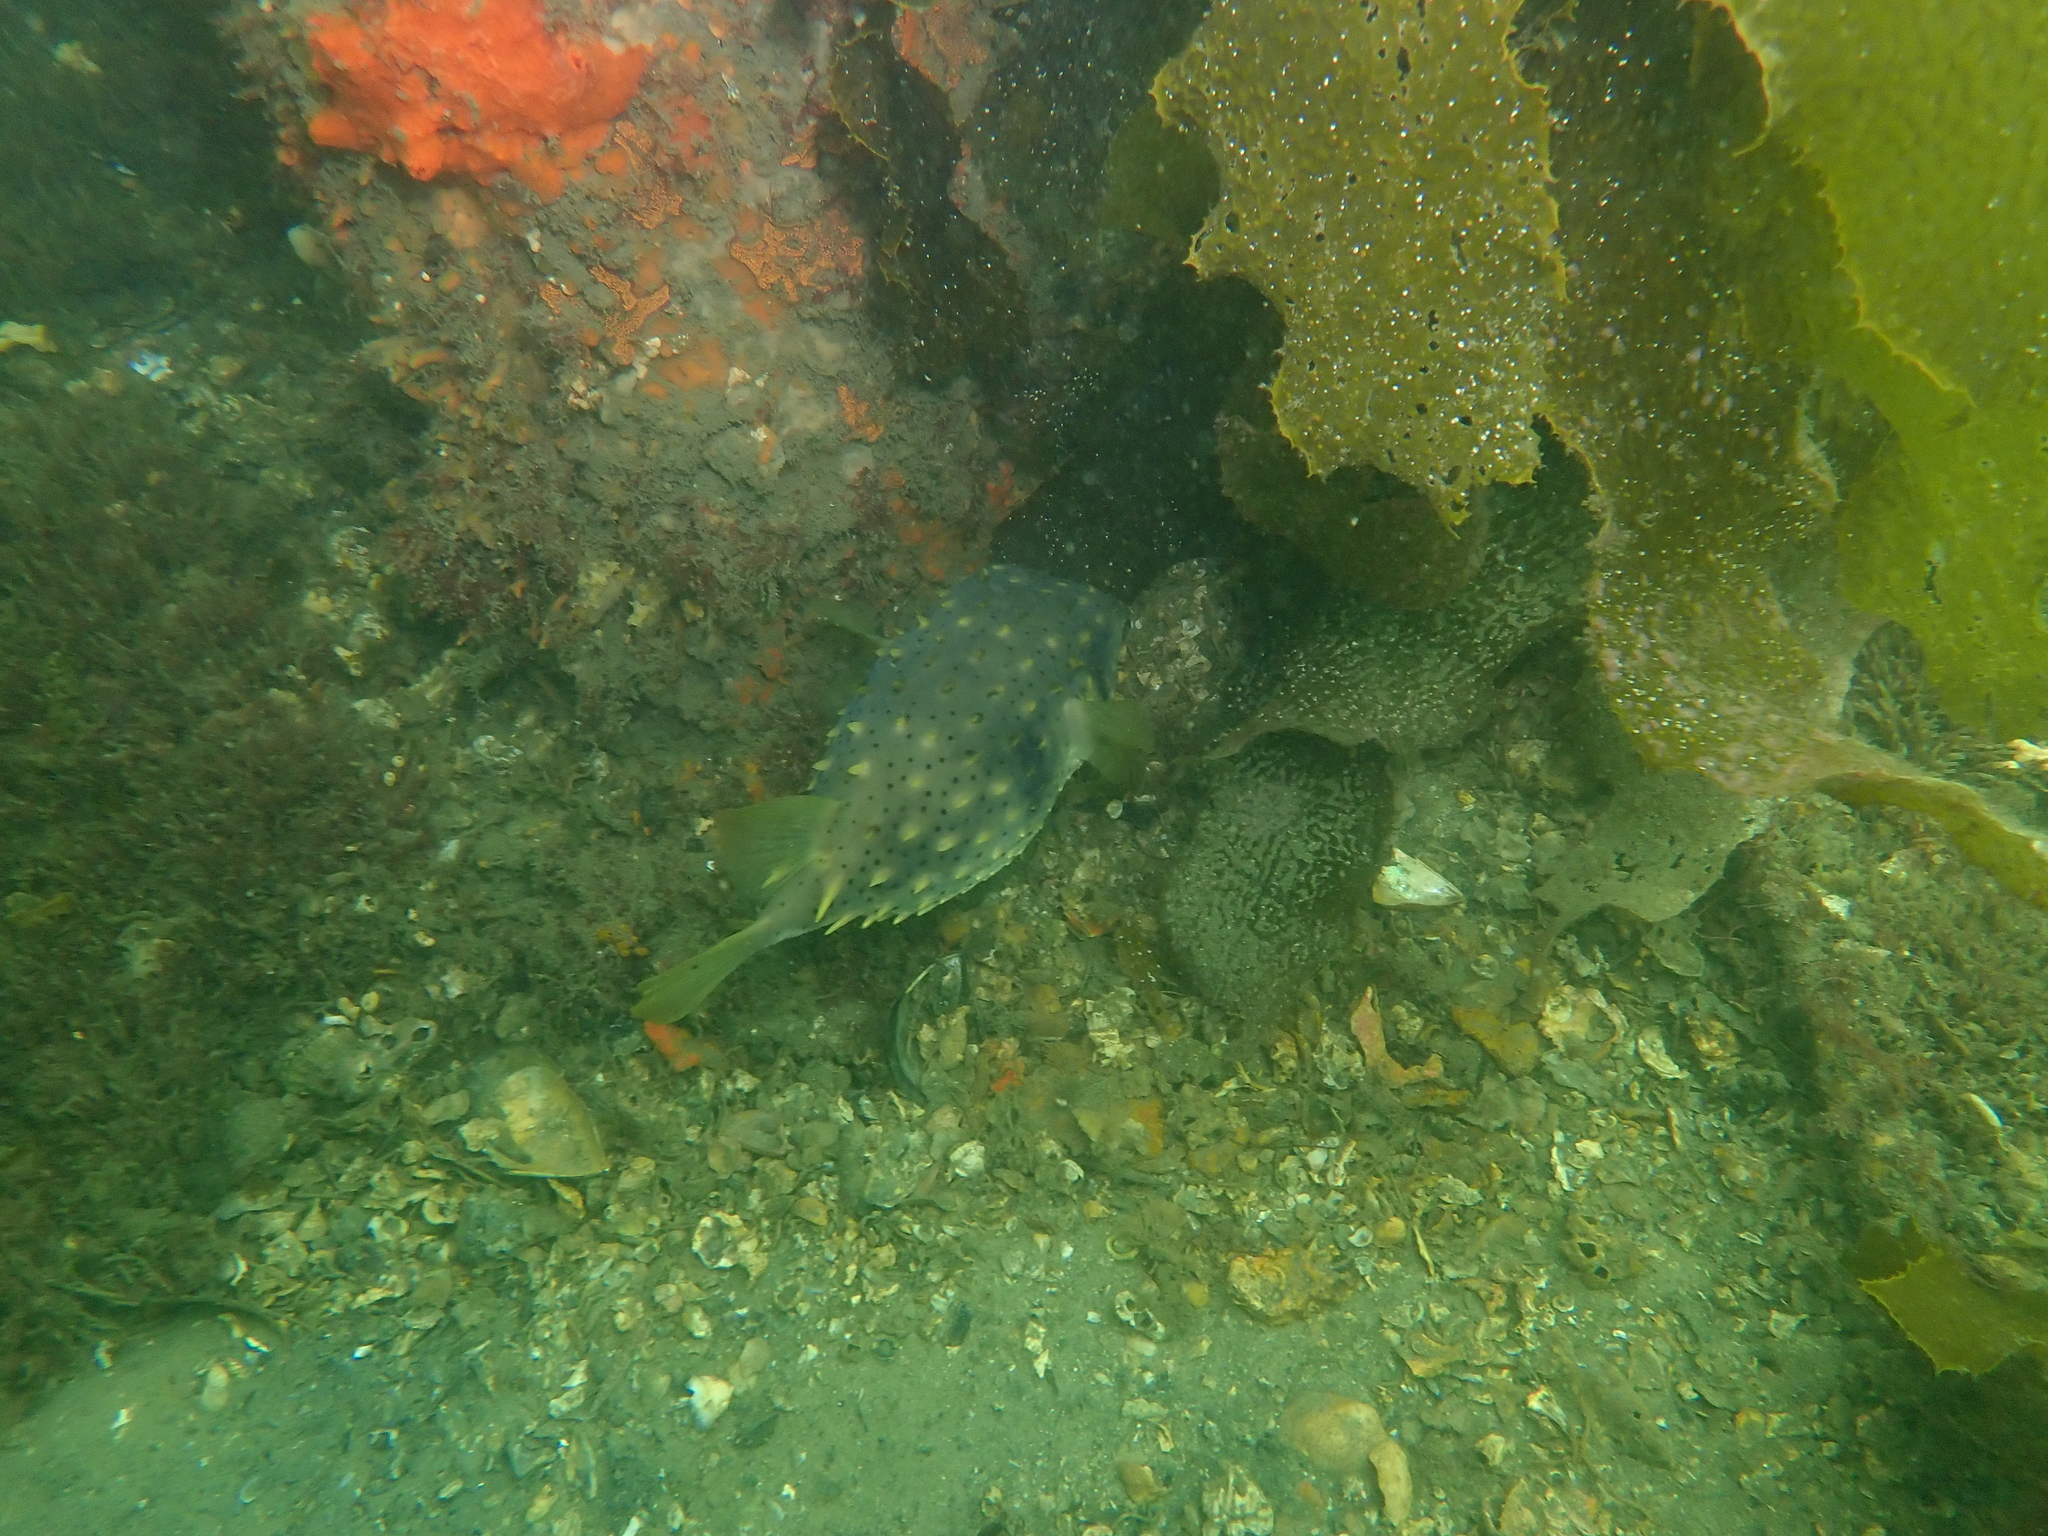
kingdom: Animalia
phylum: Chordata
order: Tetraodontiformes
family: Diodontidae
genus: Dicotylichthys
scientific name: Dicotylichthys punctulatus
